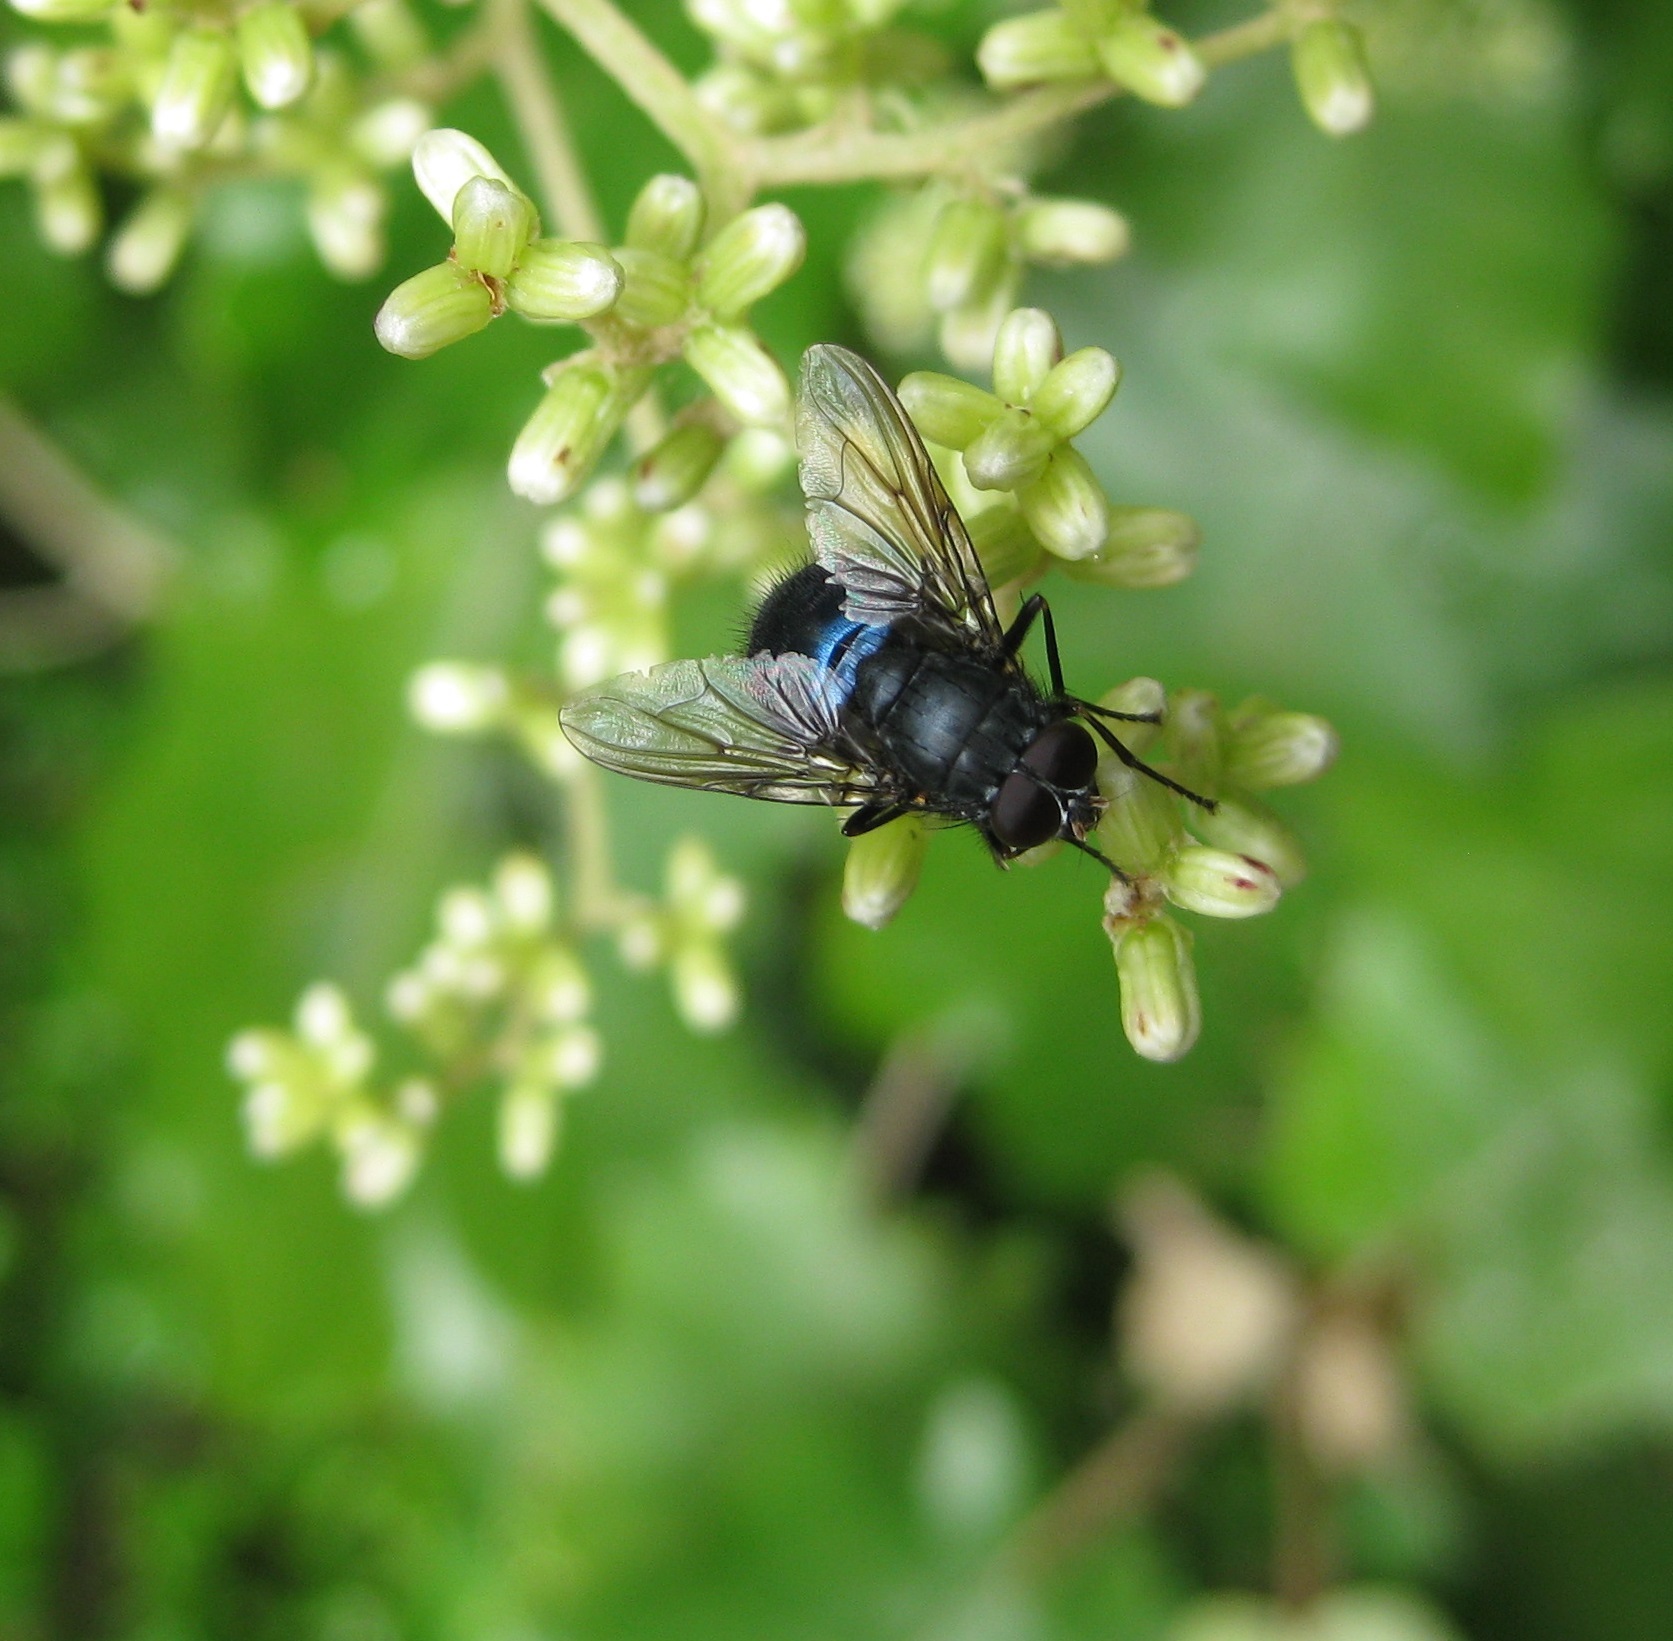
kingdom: Animalia
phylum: Arthropoda
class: Insecta
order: Diptera
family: Muscidae
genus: Calliphoroides
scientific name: Calliphoroides antennatis
